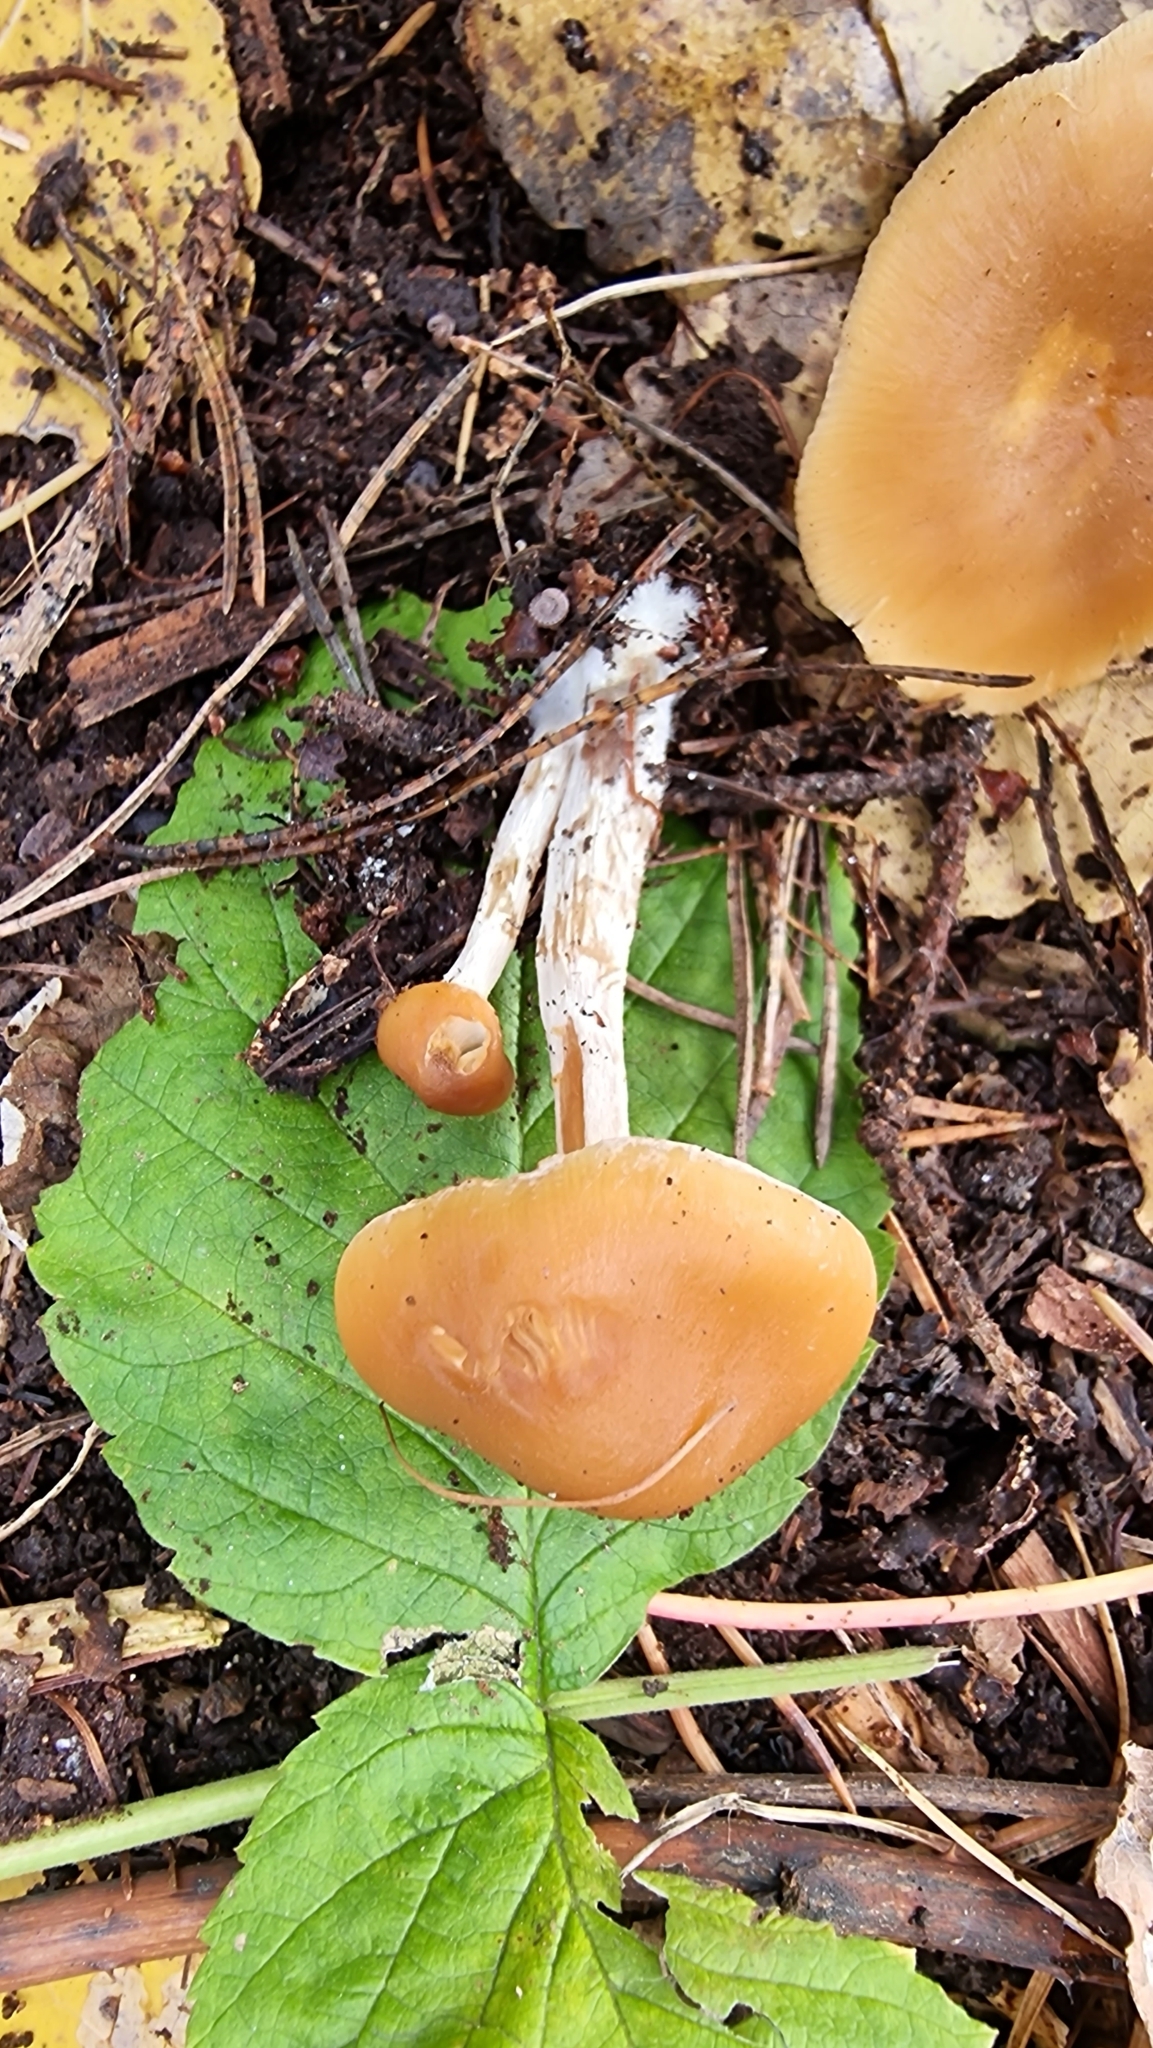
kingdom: Fungi
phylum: Basidiomycota
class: Agaricomycetes
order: Agaricales
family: Hymenogastraceae
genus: Galerina
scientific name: Galerina marginata
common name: Funeral bell
